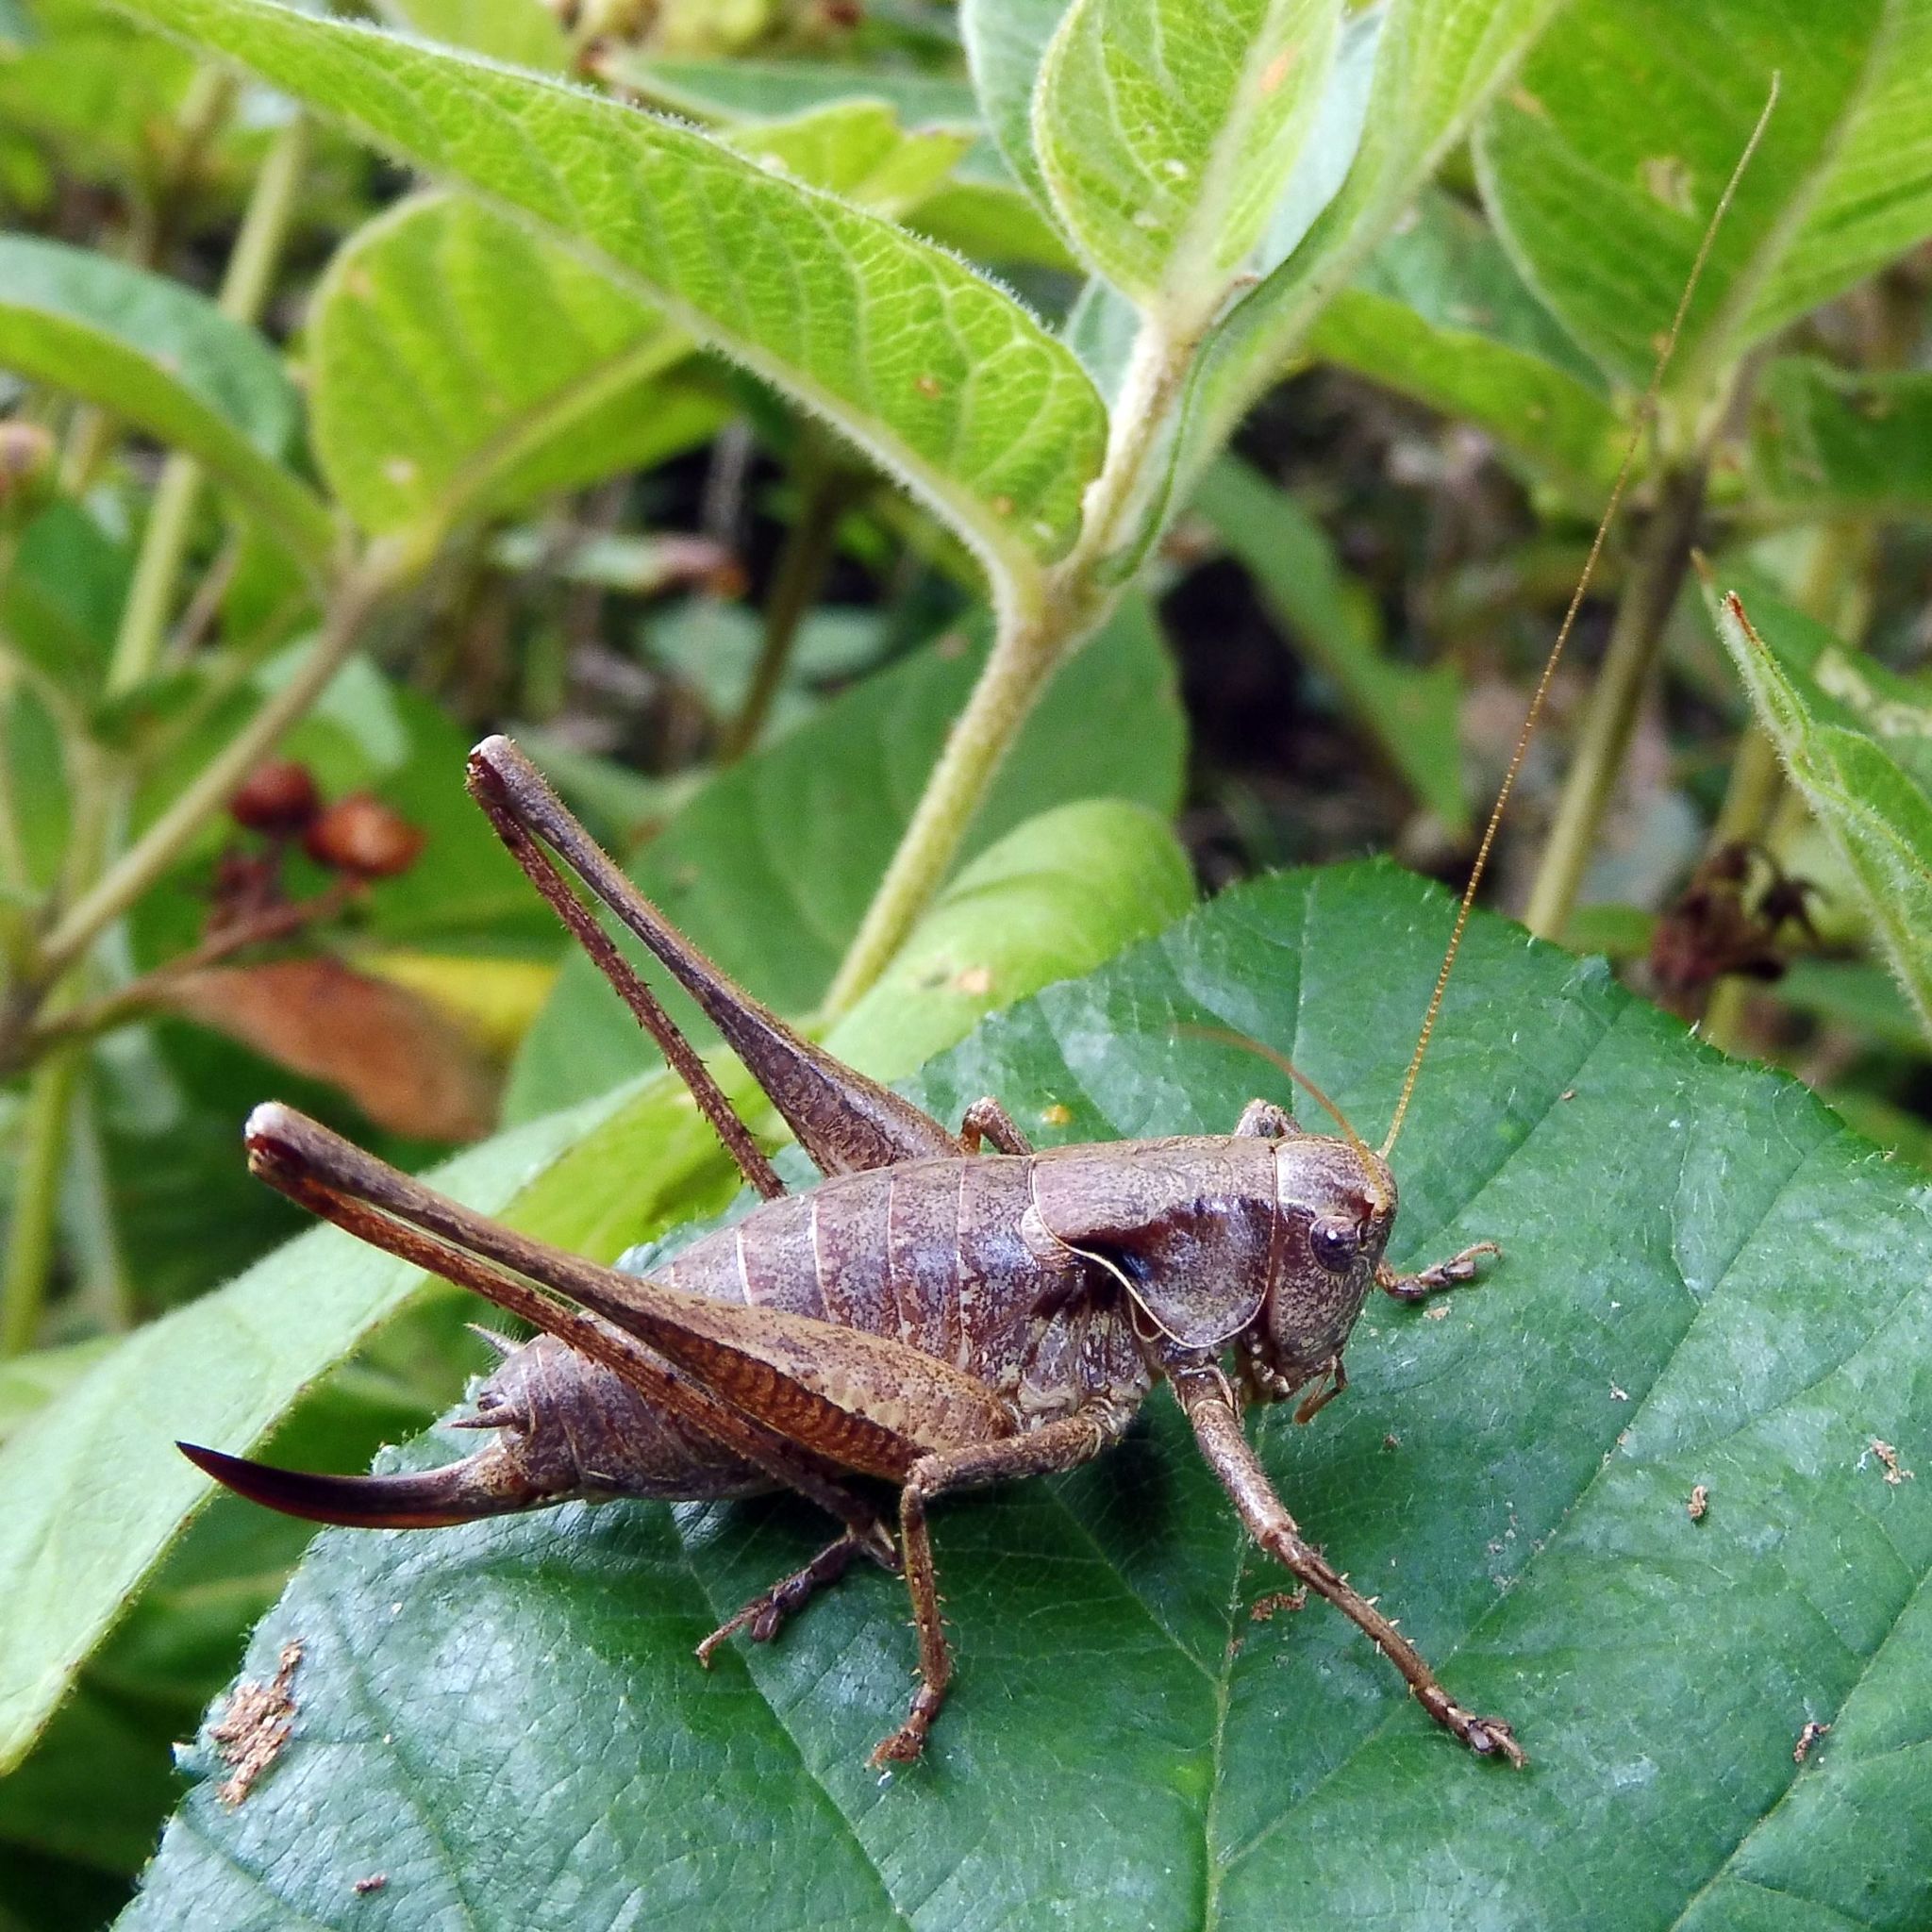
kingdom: Animalia
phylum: Arthropoda
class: Insecta
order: Orthoptera
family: Tettigoniidae
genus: Pholidoptera
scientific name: Pholidoptera griseoaptera
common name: Dark bush-cricket
